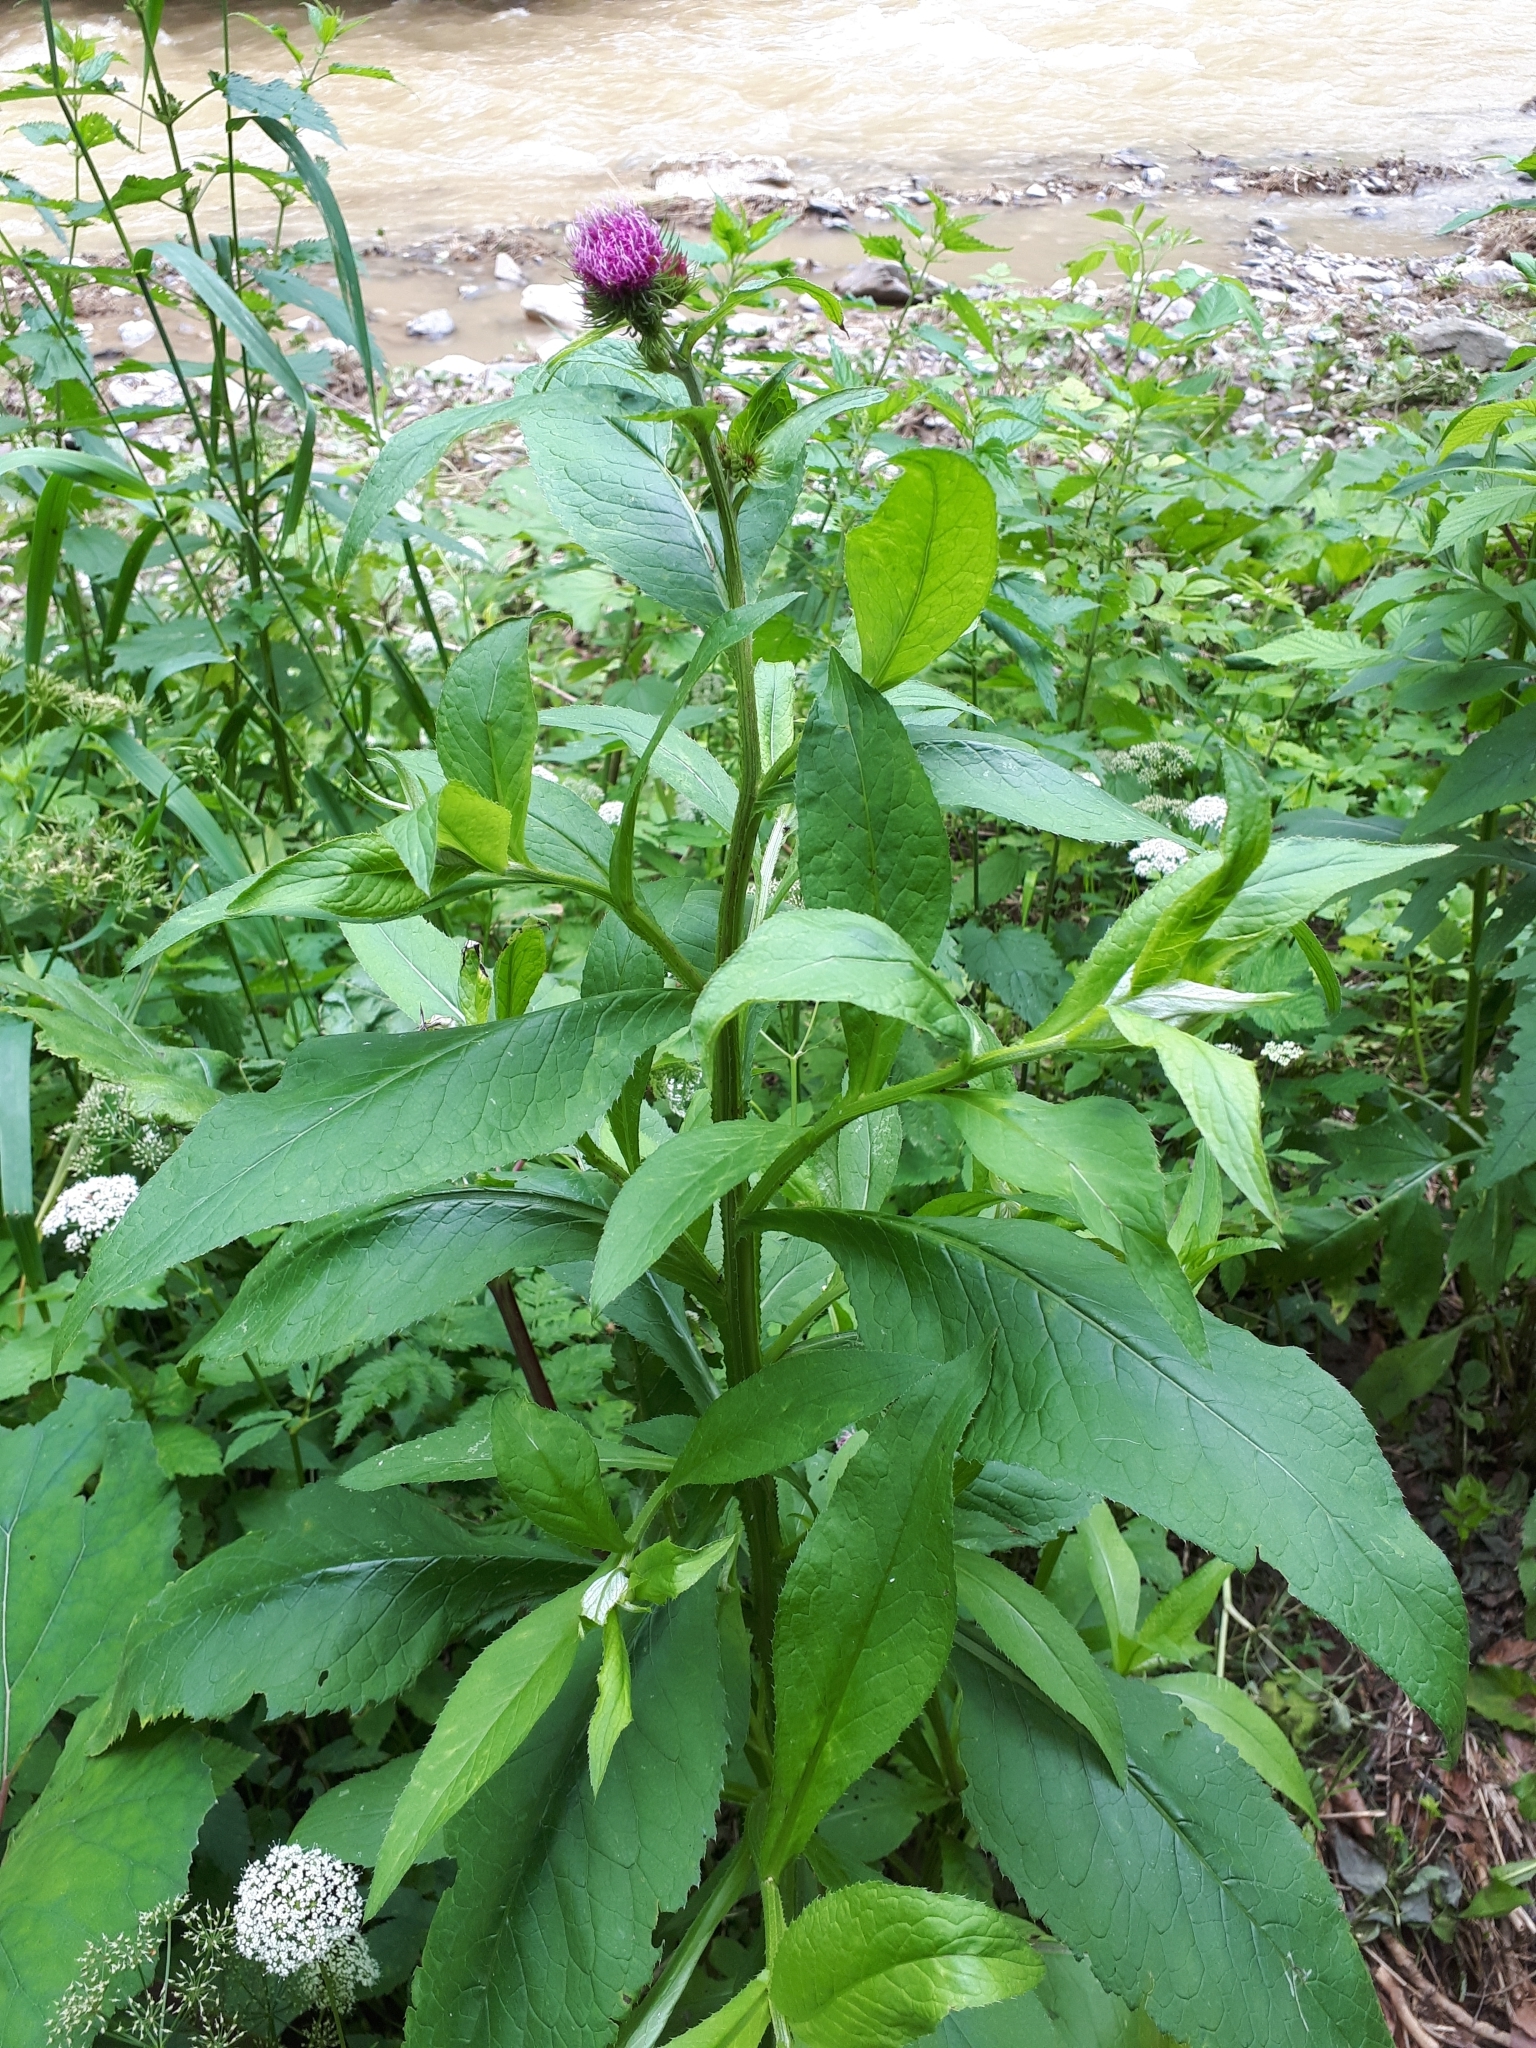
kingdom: Plantae
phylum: Tracheophyta
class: Magnoliopsida
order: Asterales
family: Asteraceae
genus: Carduus
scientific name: Carduus personata
